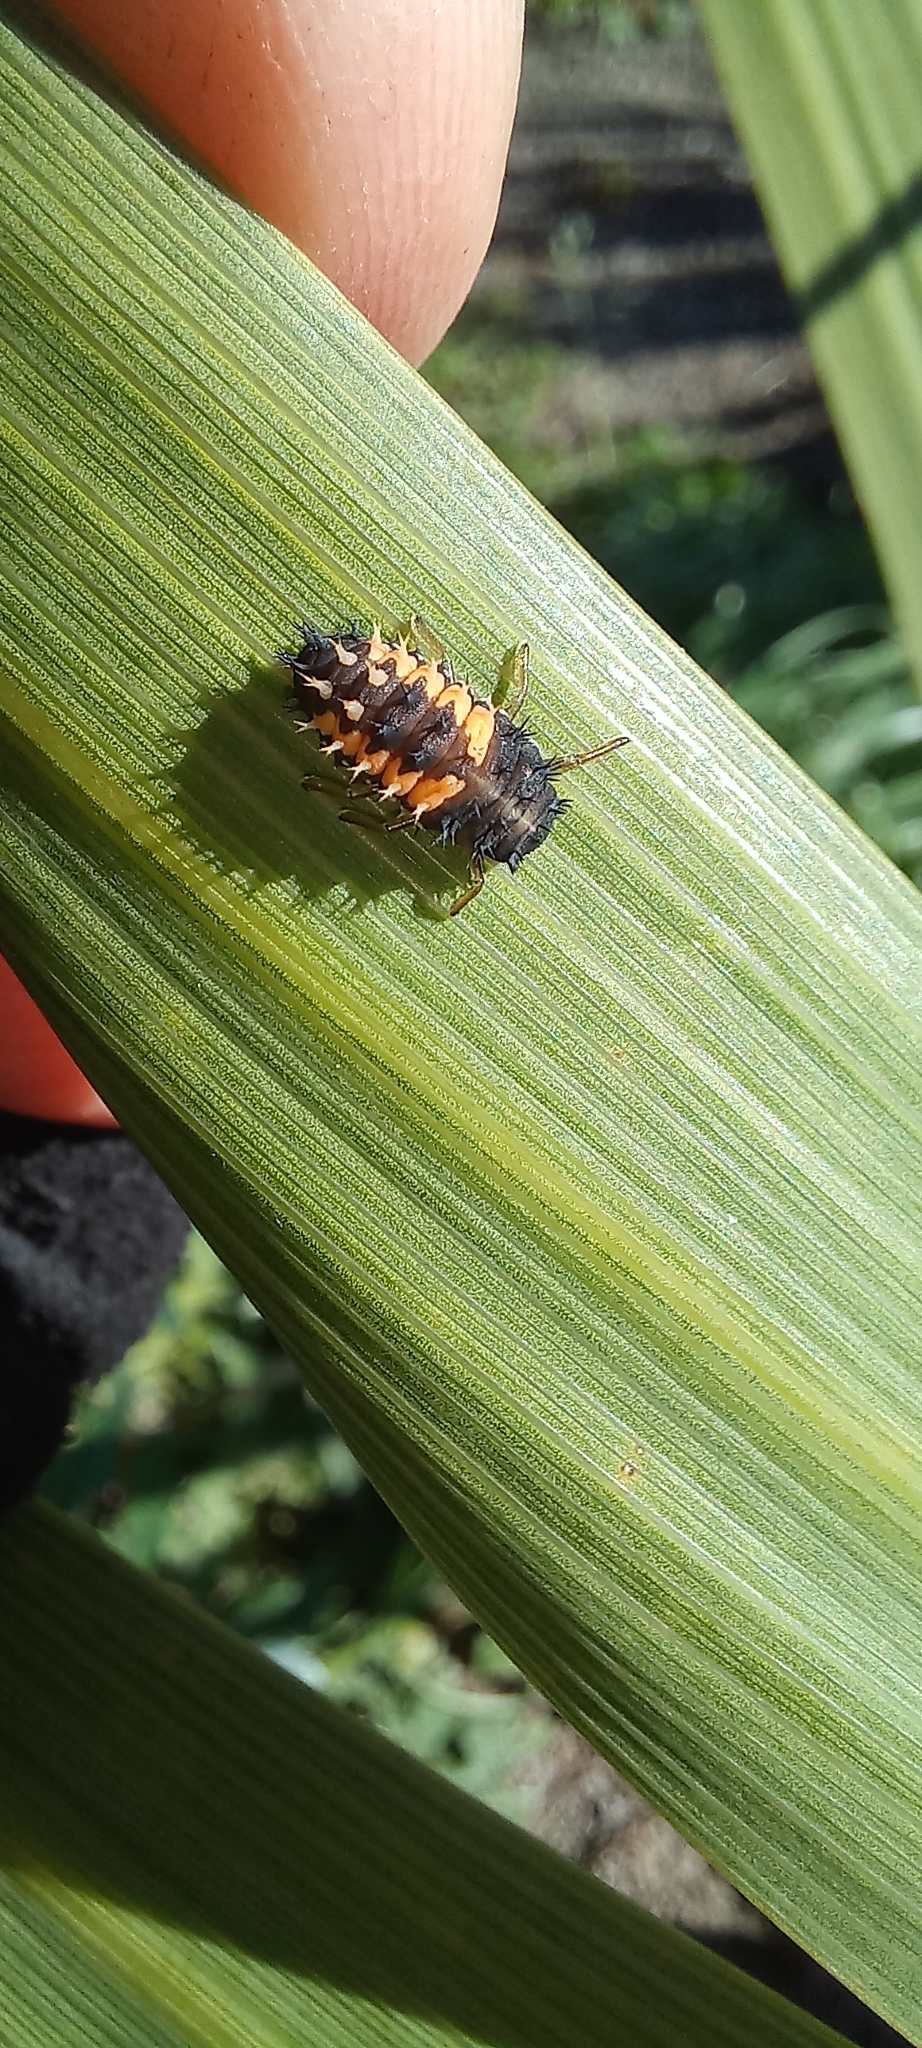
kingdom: Animalia
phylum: Arthropoda
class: Insecta
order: Coleoptera
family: Coccinellidae
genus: Harmonia
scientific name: Harmonia axyridis
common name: Harlequin ladybird
